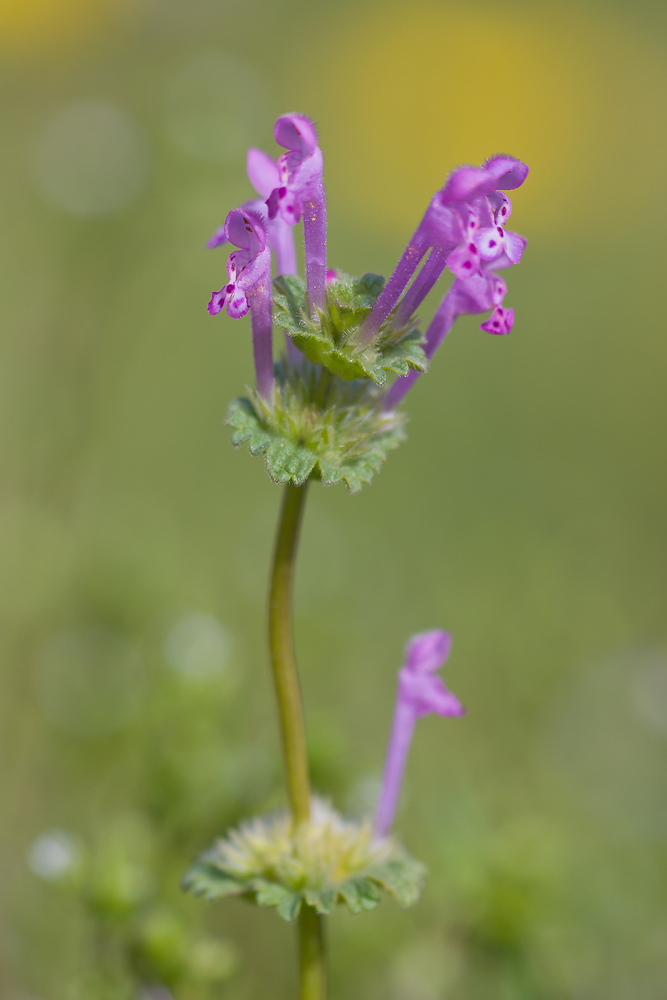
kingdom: Plantae
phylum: Tracheophyta
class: Magnoliopsida
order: Lamiales
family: Lamiaceae
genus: Lamium
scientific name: Lamium amplexicaule
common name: Henbit dead-nettle
